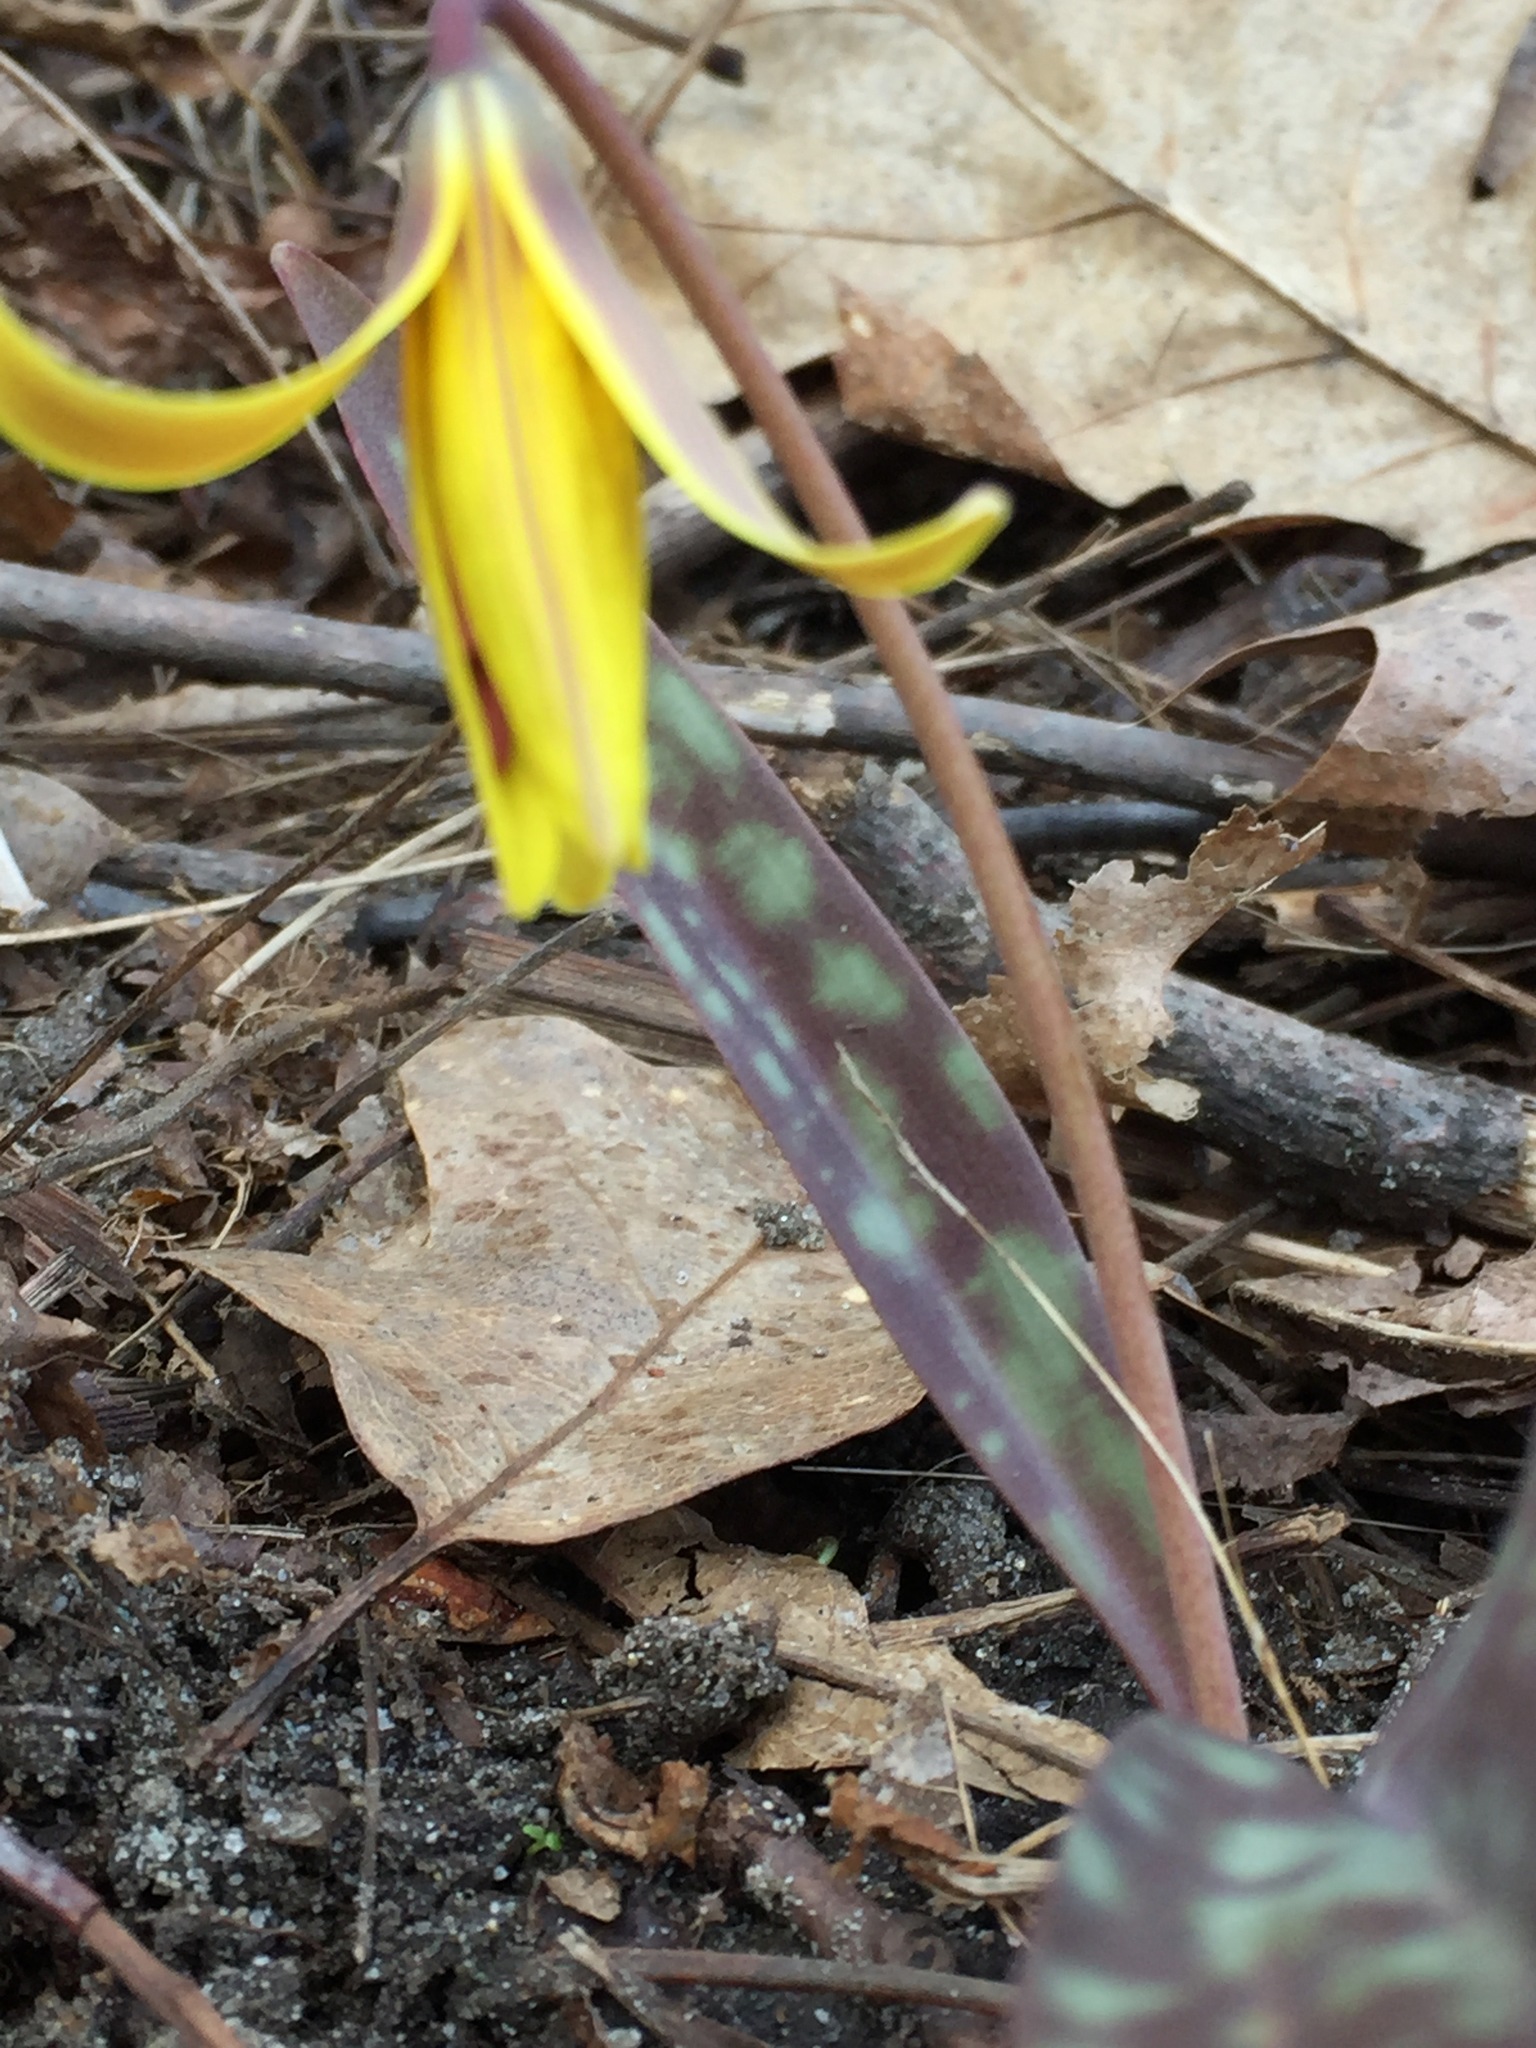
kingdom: Plantae
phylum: Tracheophyta
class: Liliopsida
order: Liliales
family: Liliaceae
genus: Erythronium
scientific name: Erythronium americanum
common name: Yellow adder's-tongue
